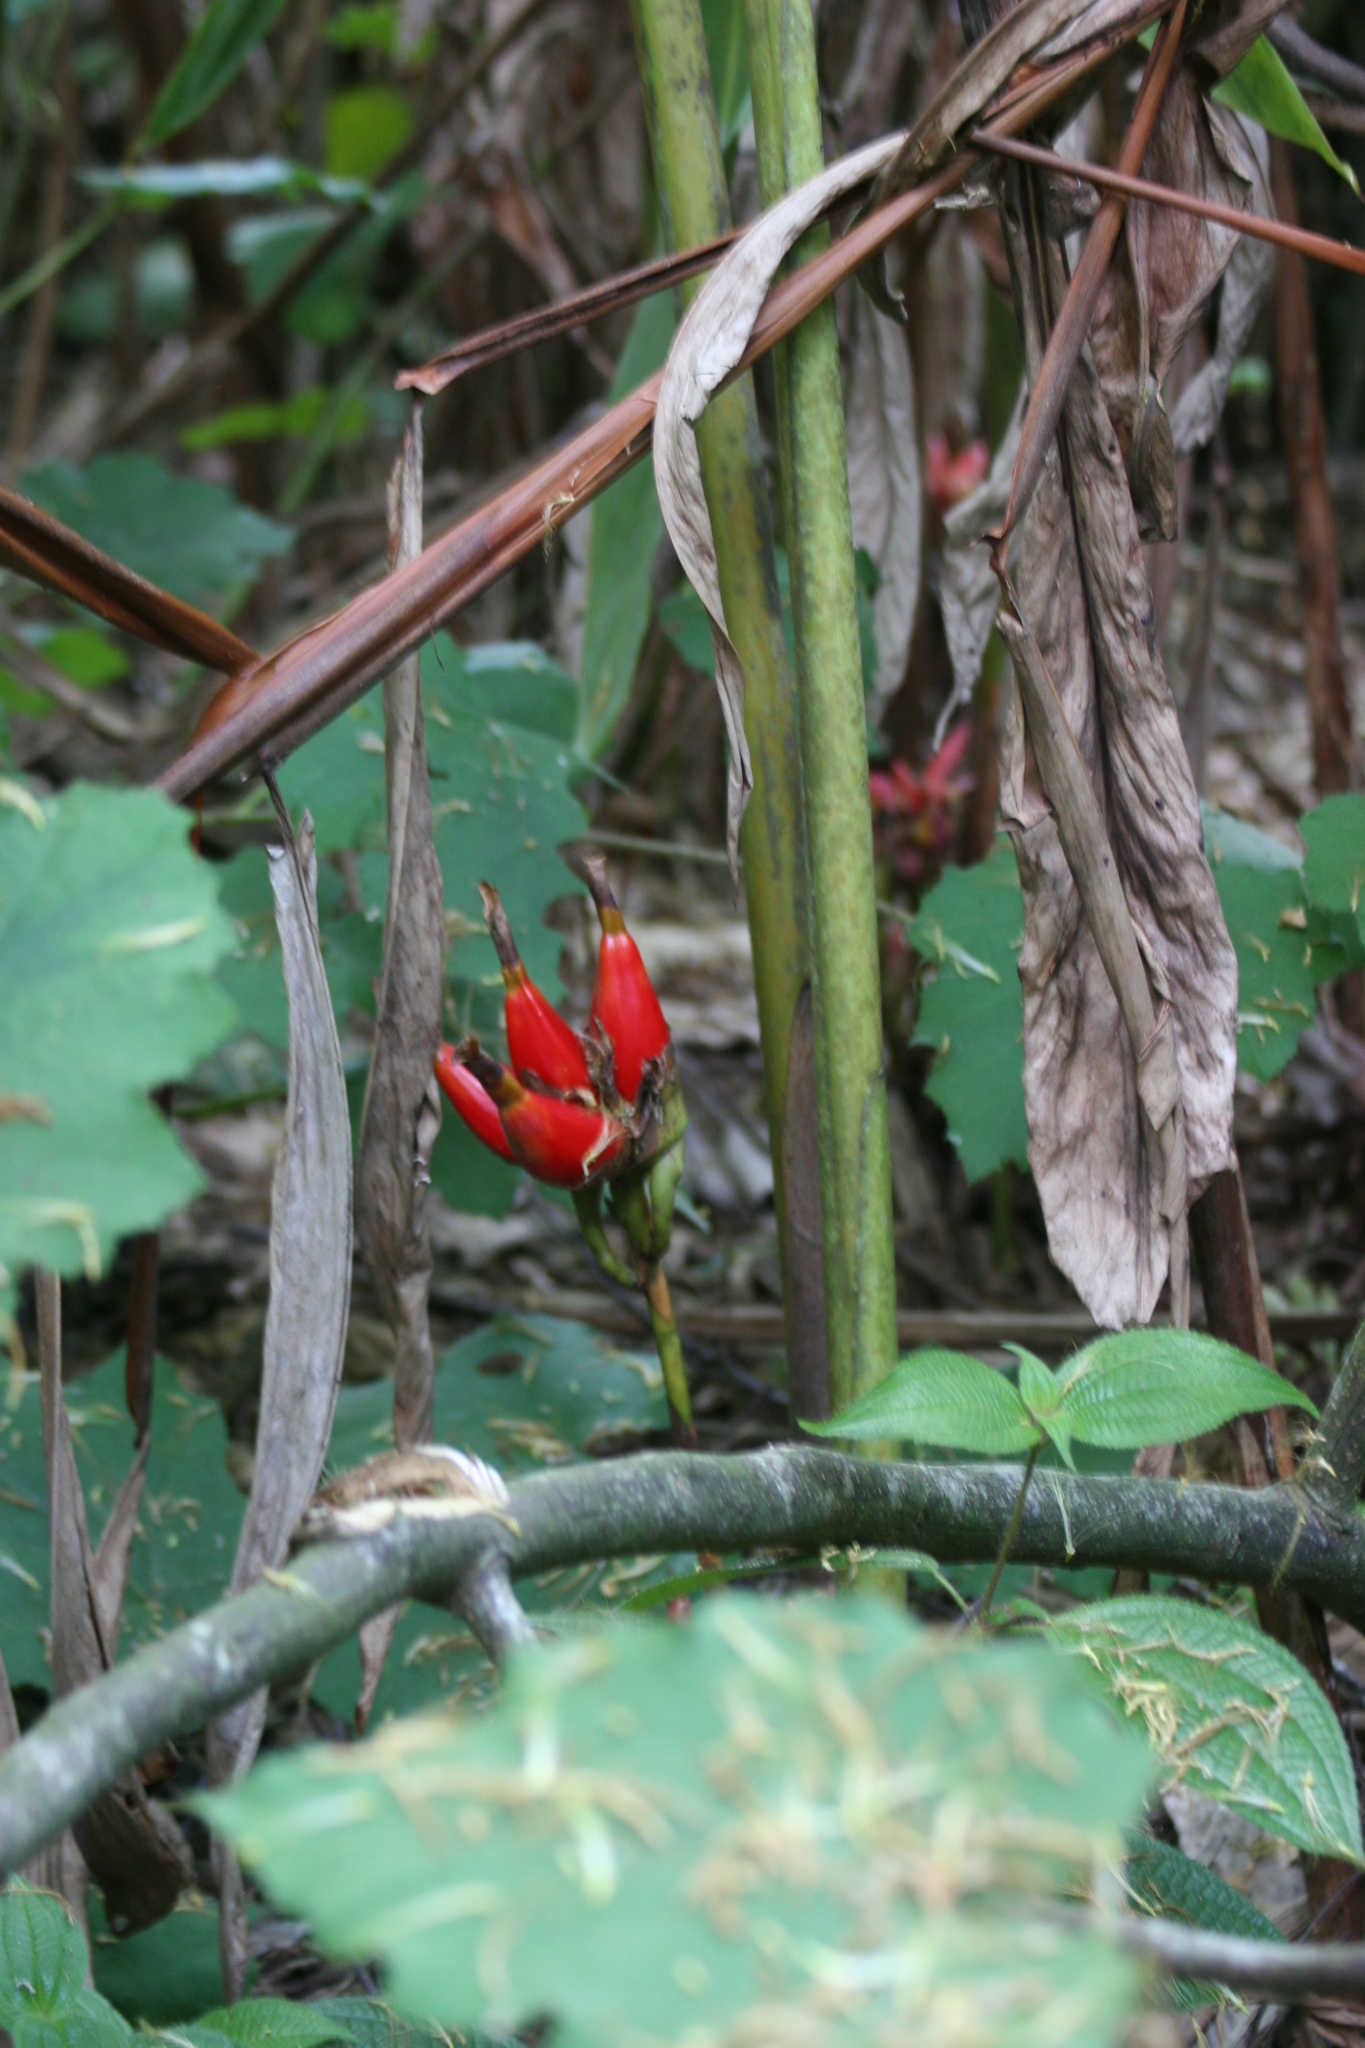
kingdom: Plantae
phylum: Tracheophyta
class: Liliopsida
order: Zingiberales
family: Zingiberaceae
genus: Aframomum
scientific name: Aframomum zambesiacum
